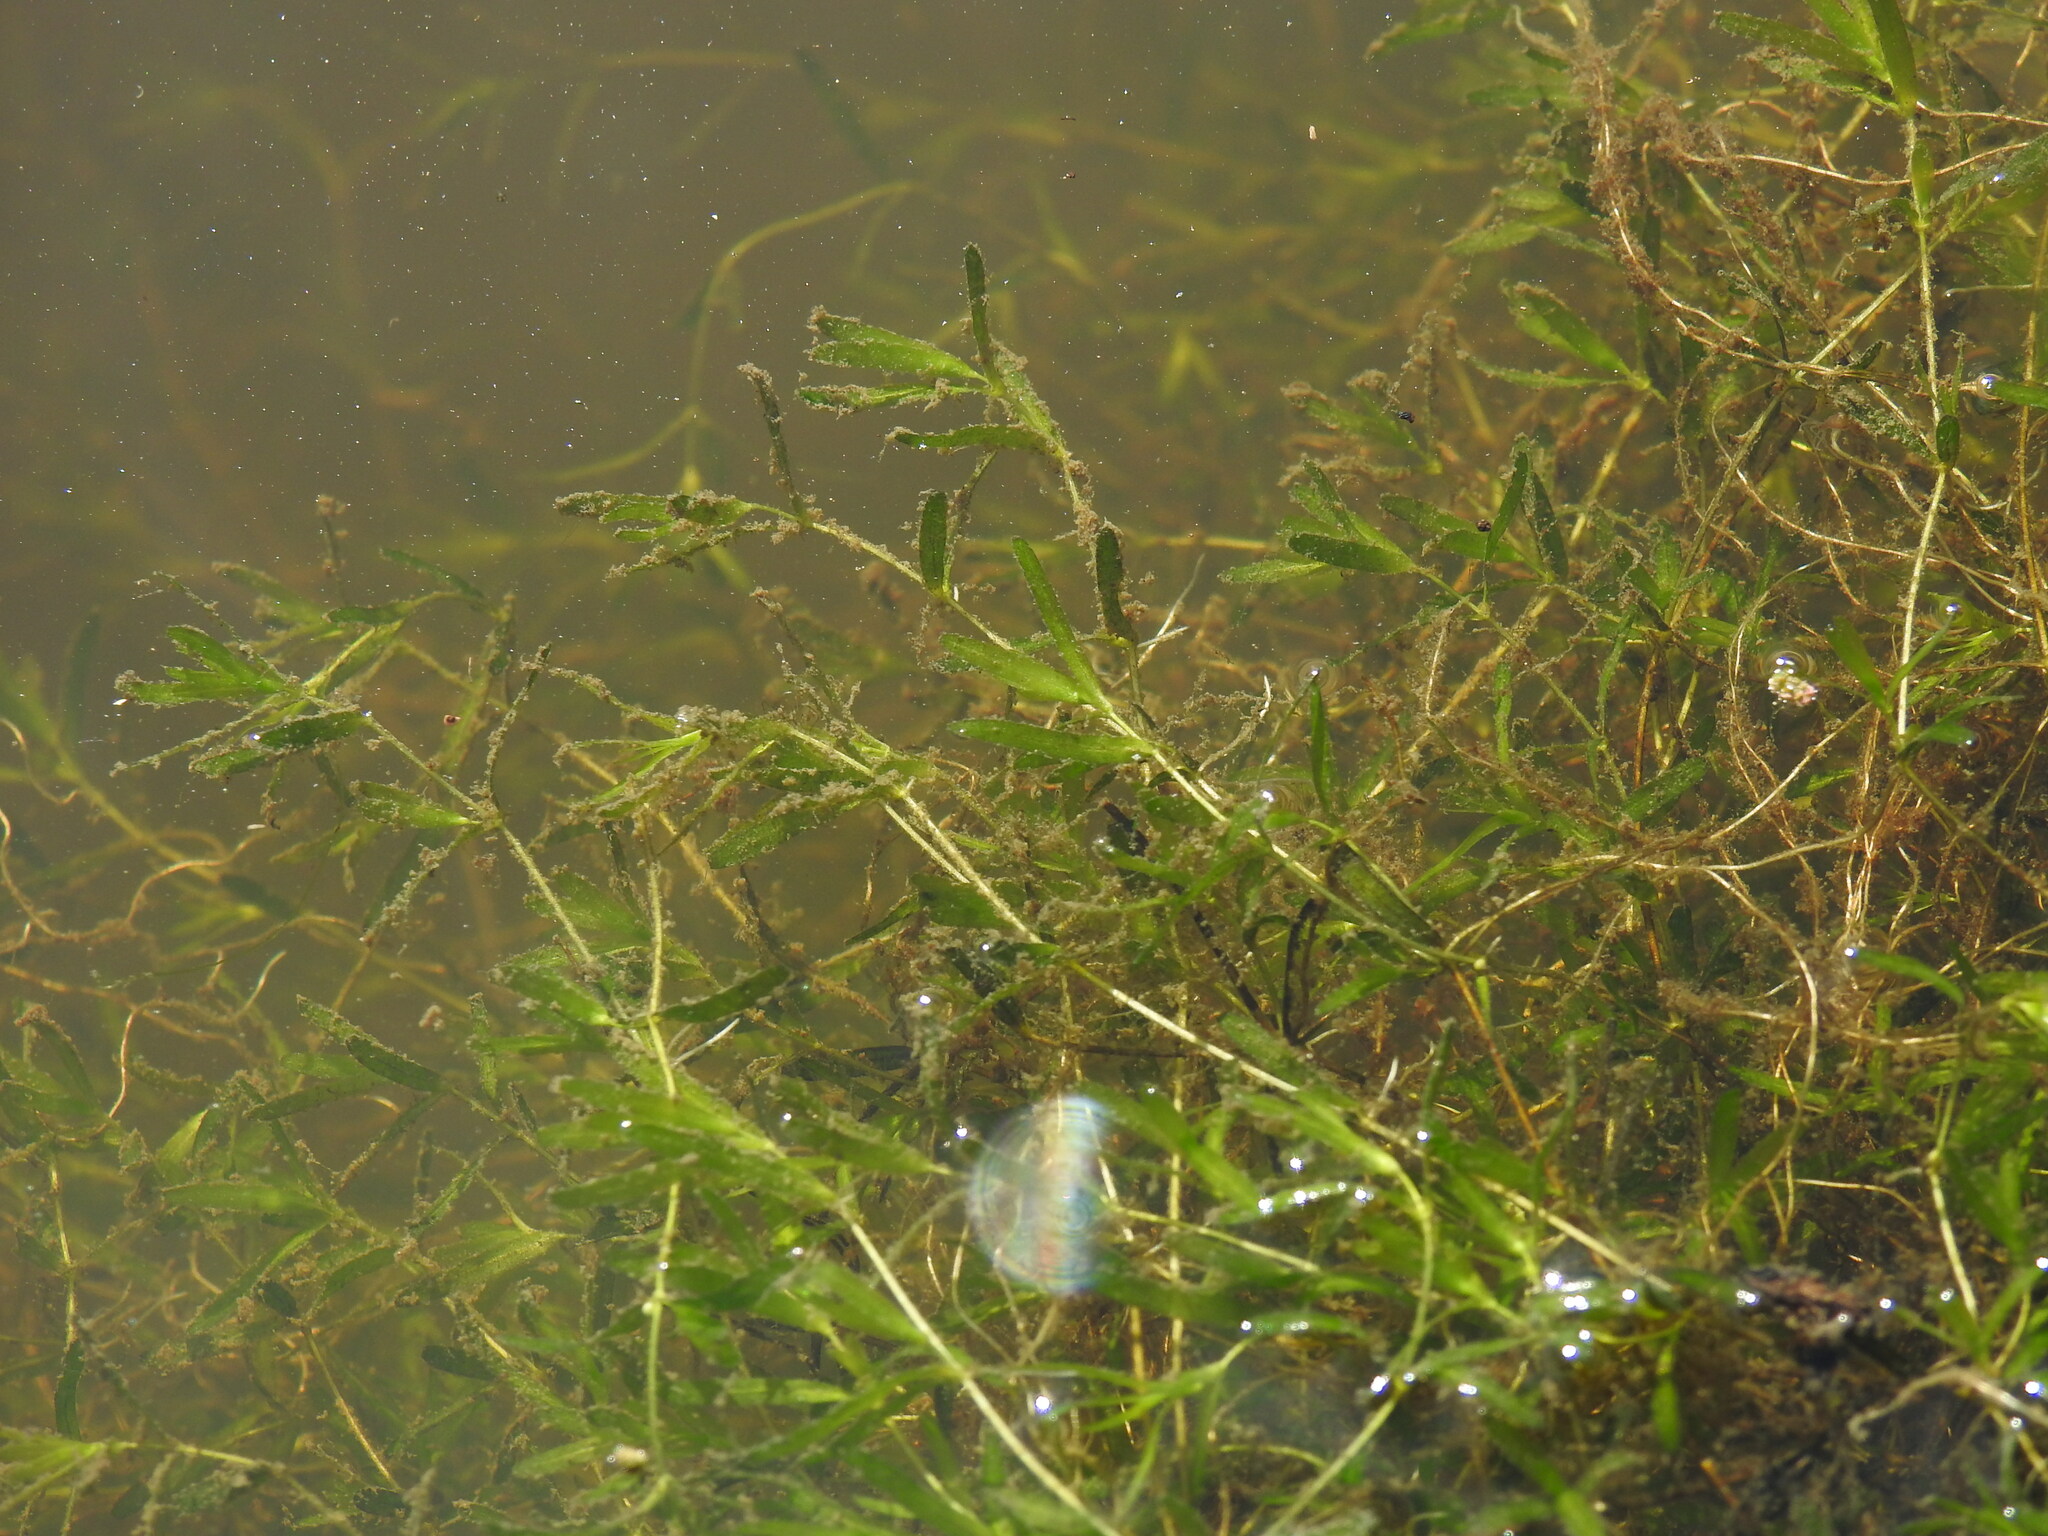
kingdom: Plantae
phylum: Tracheophyta
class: Magnoliopsida
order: Lamiales
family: Plantaginaceae
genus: Callitriche
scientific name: Callitriche truncata
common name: Short-leaved water-starwort
